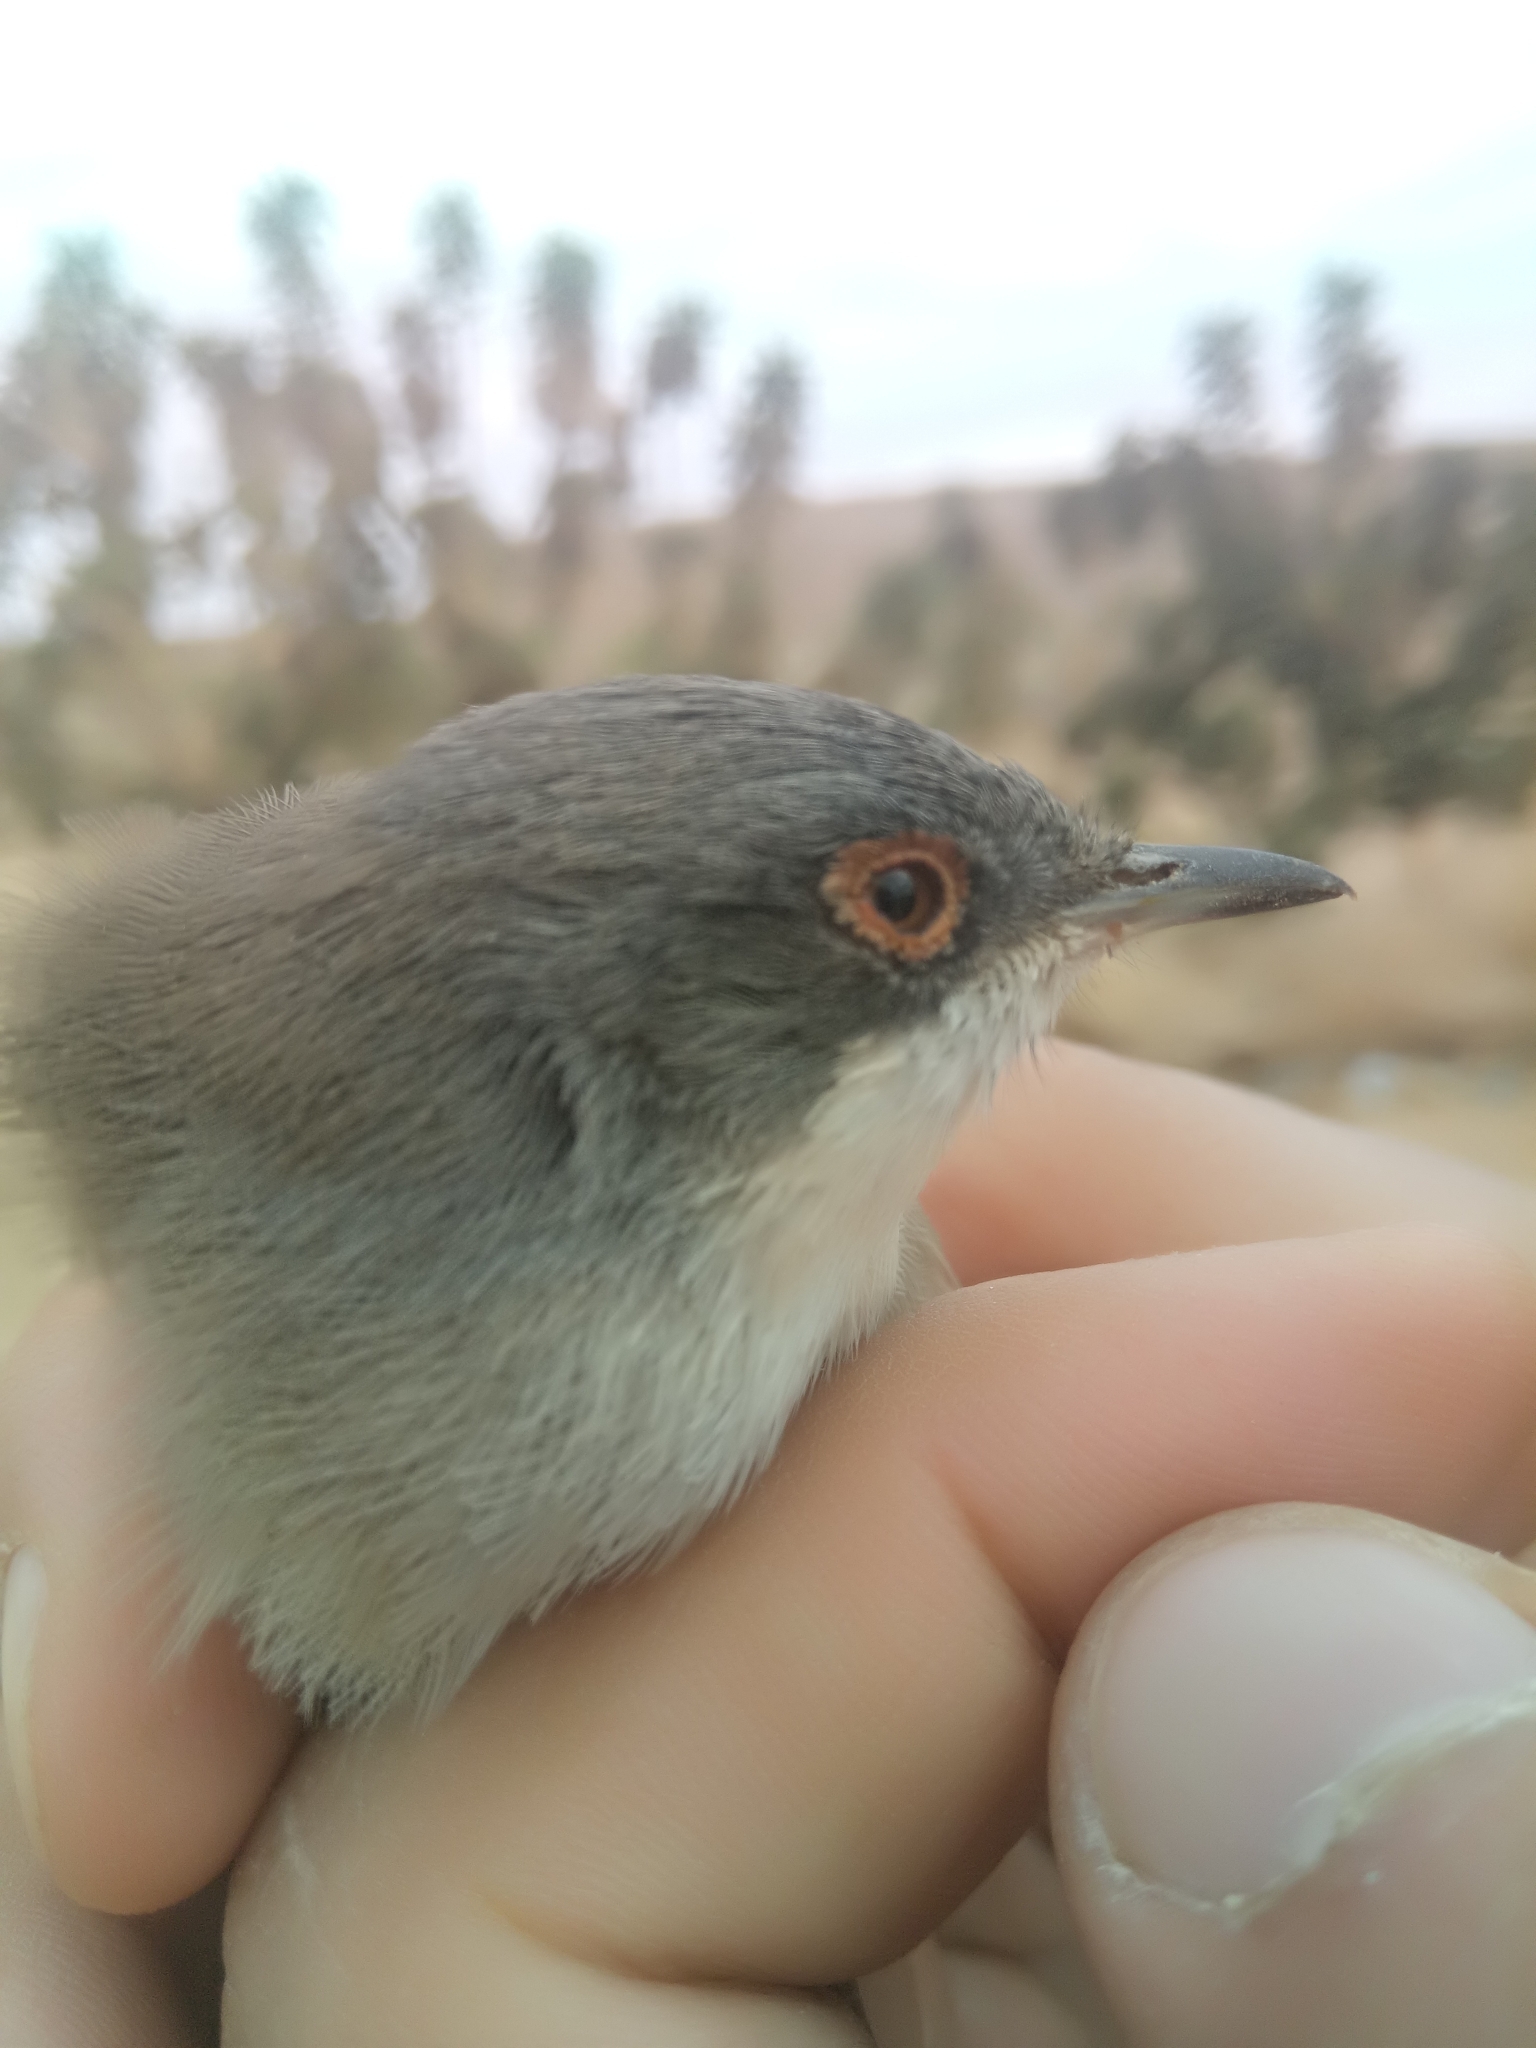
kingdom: Animalia
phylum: Chordata
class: Aves
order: Passeriformes
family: Sylviidae
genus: Curruca
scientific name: Curruca melanocephala
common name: Sardinian warbler
